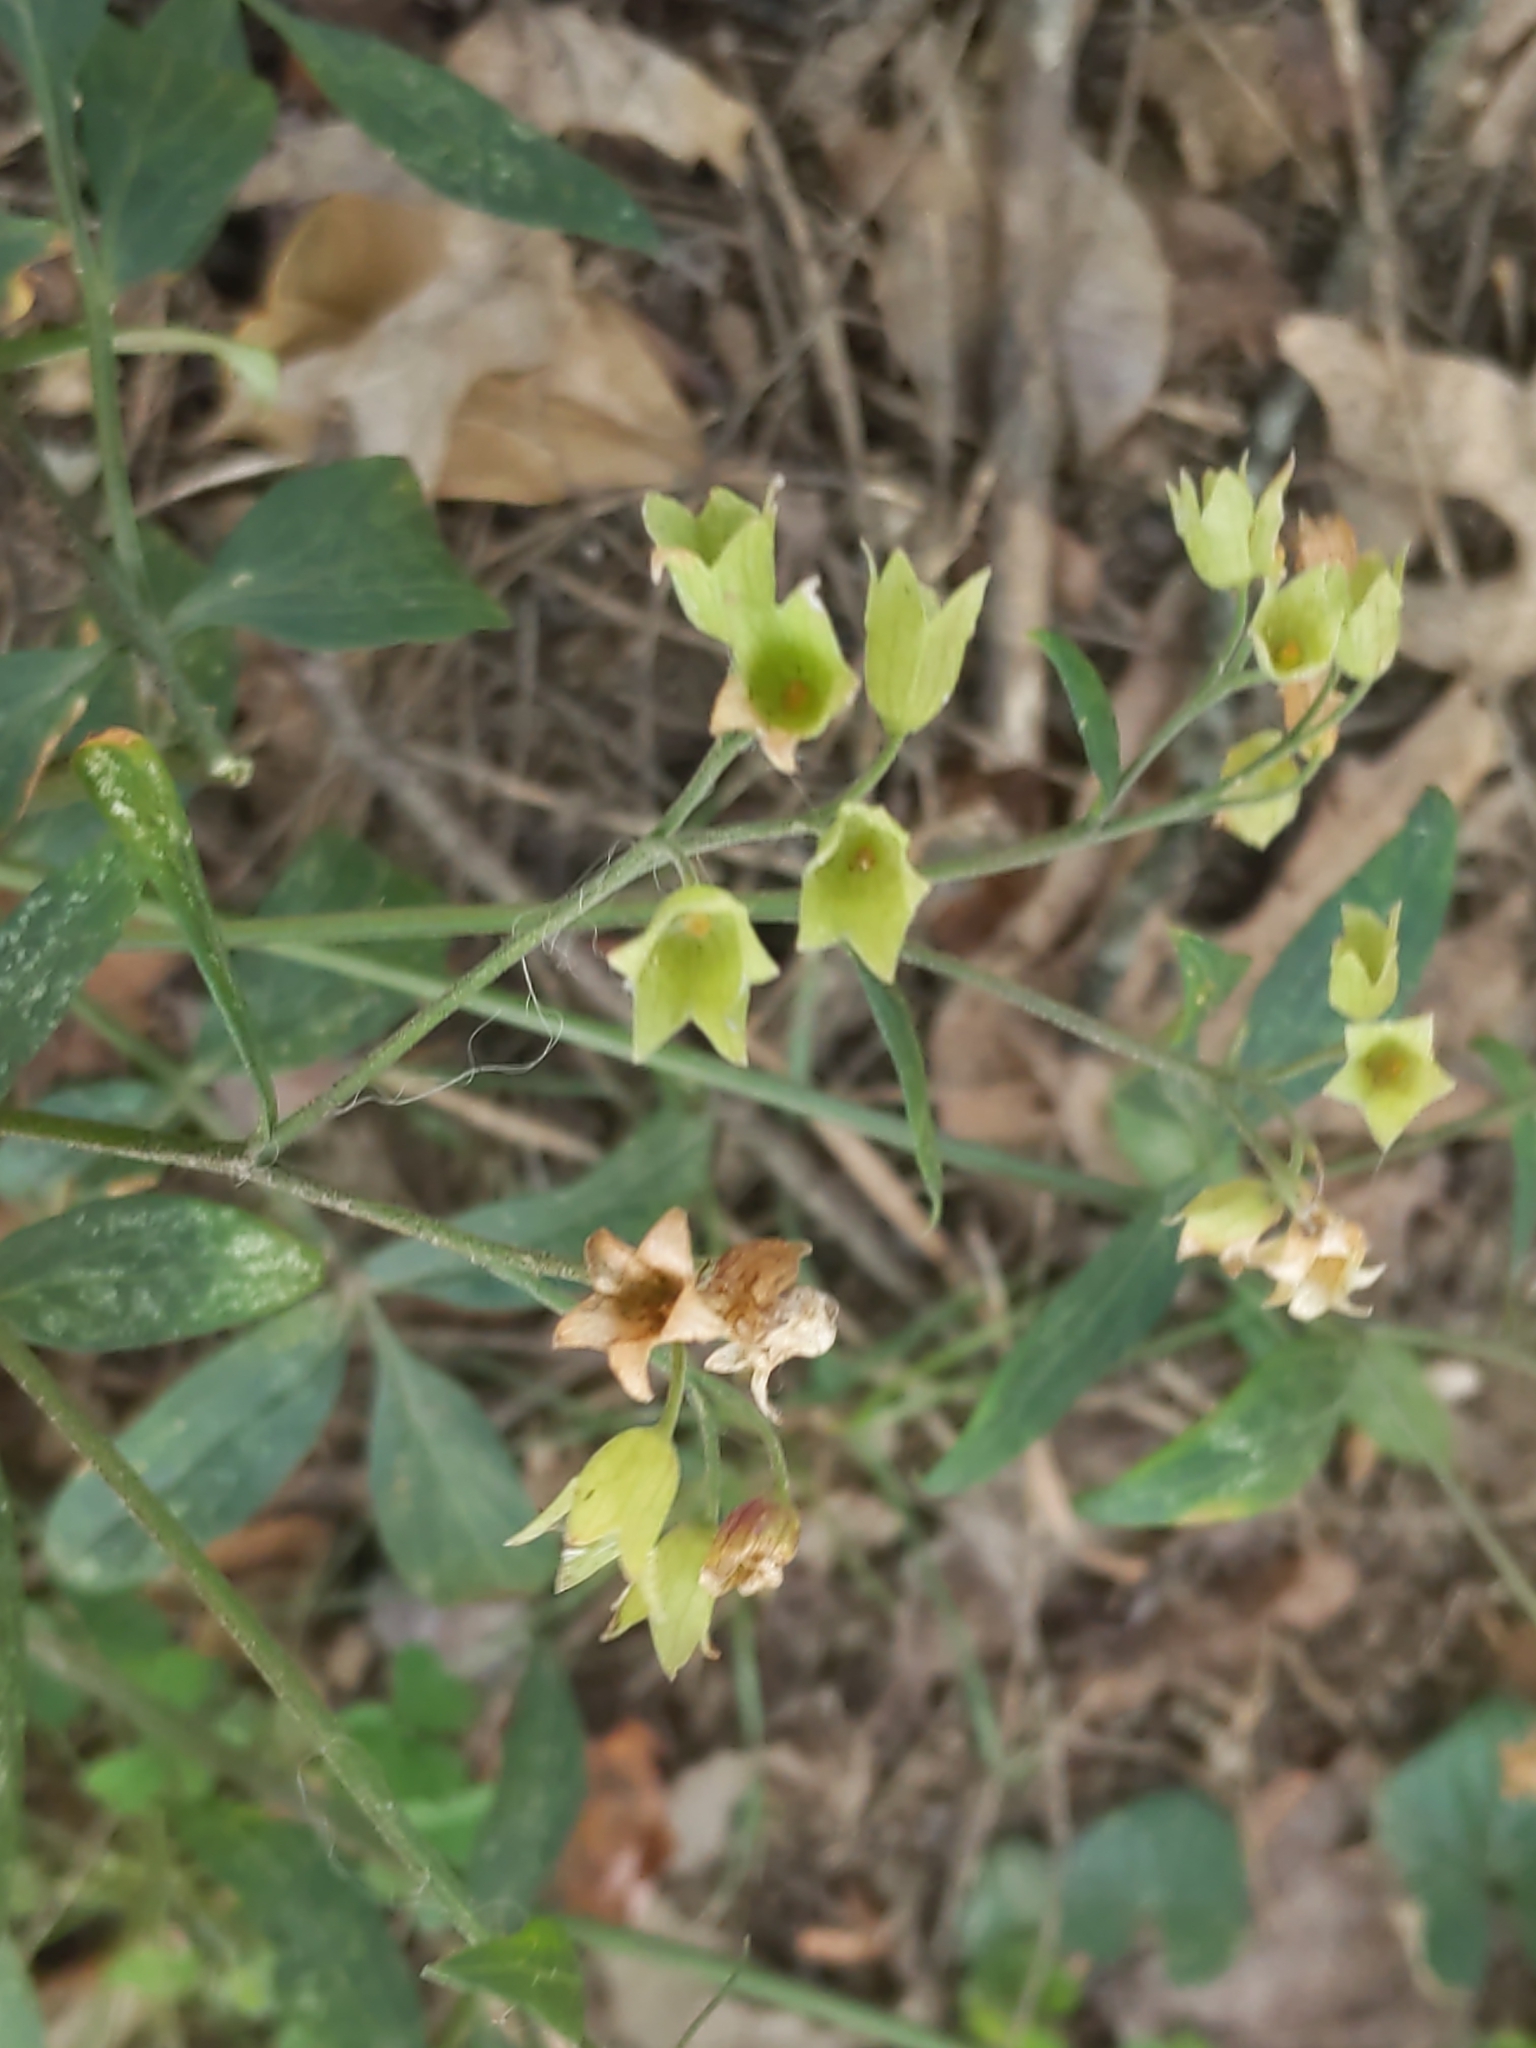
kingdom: Plantae
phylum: Tracheophyta
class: Magnoliopsida
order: Ericales
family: Polemoniaceae
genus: Polemonium
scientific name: Polemonium reptans
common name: Creeping jacob's-ladder
